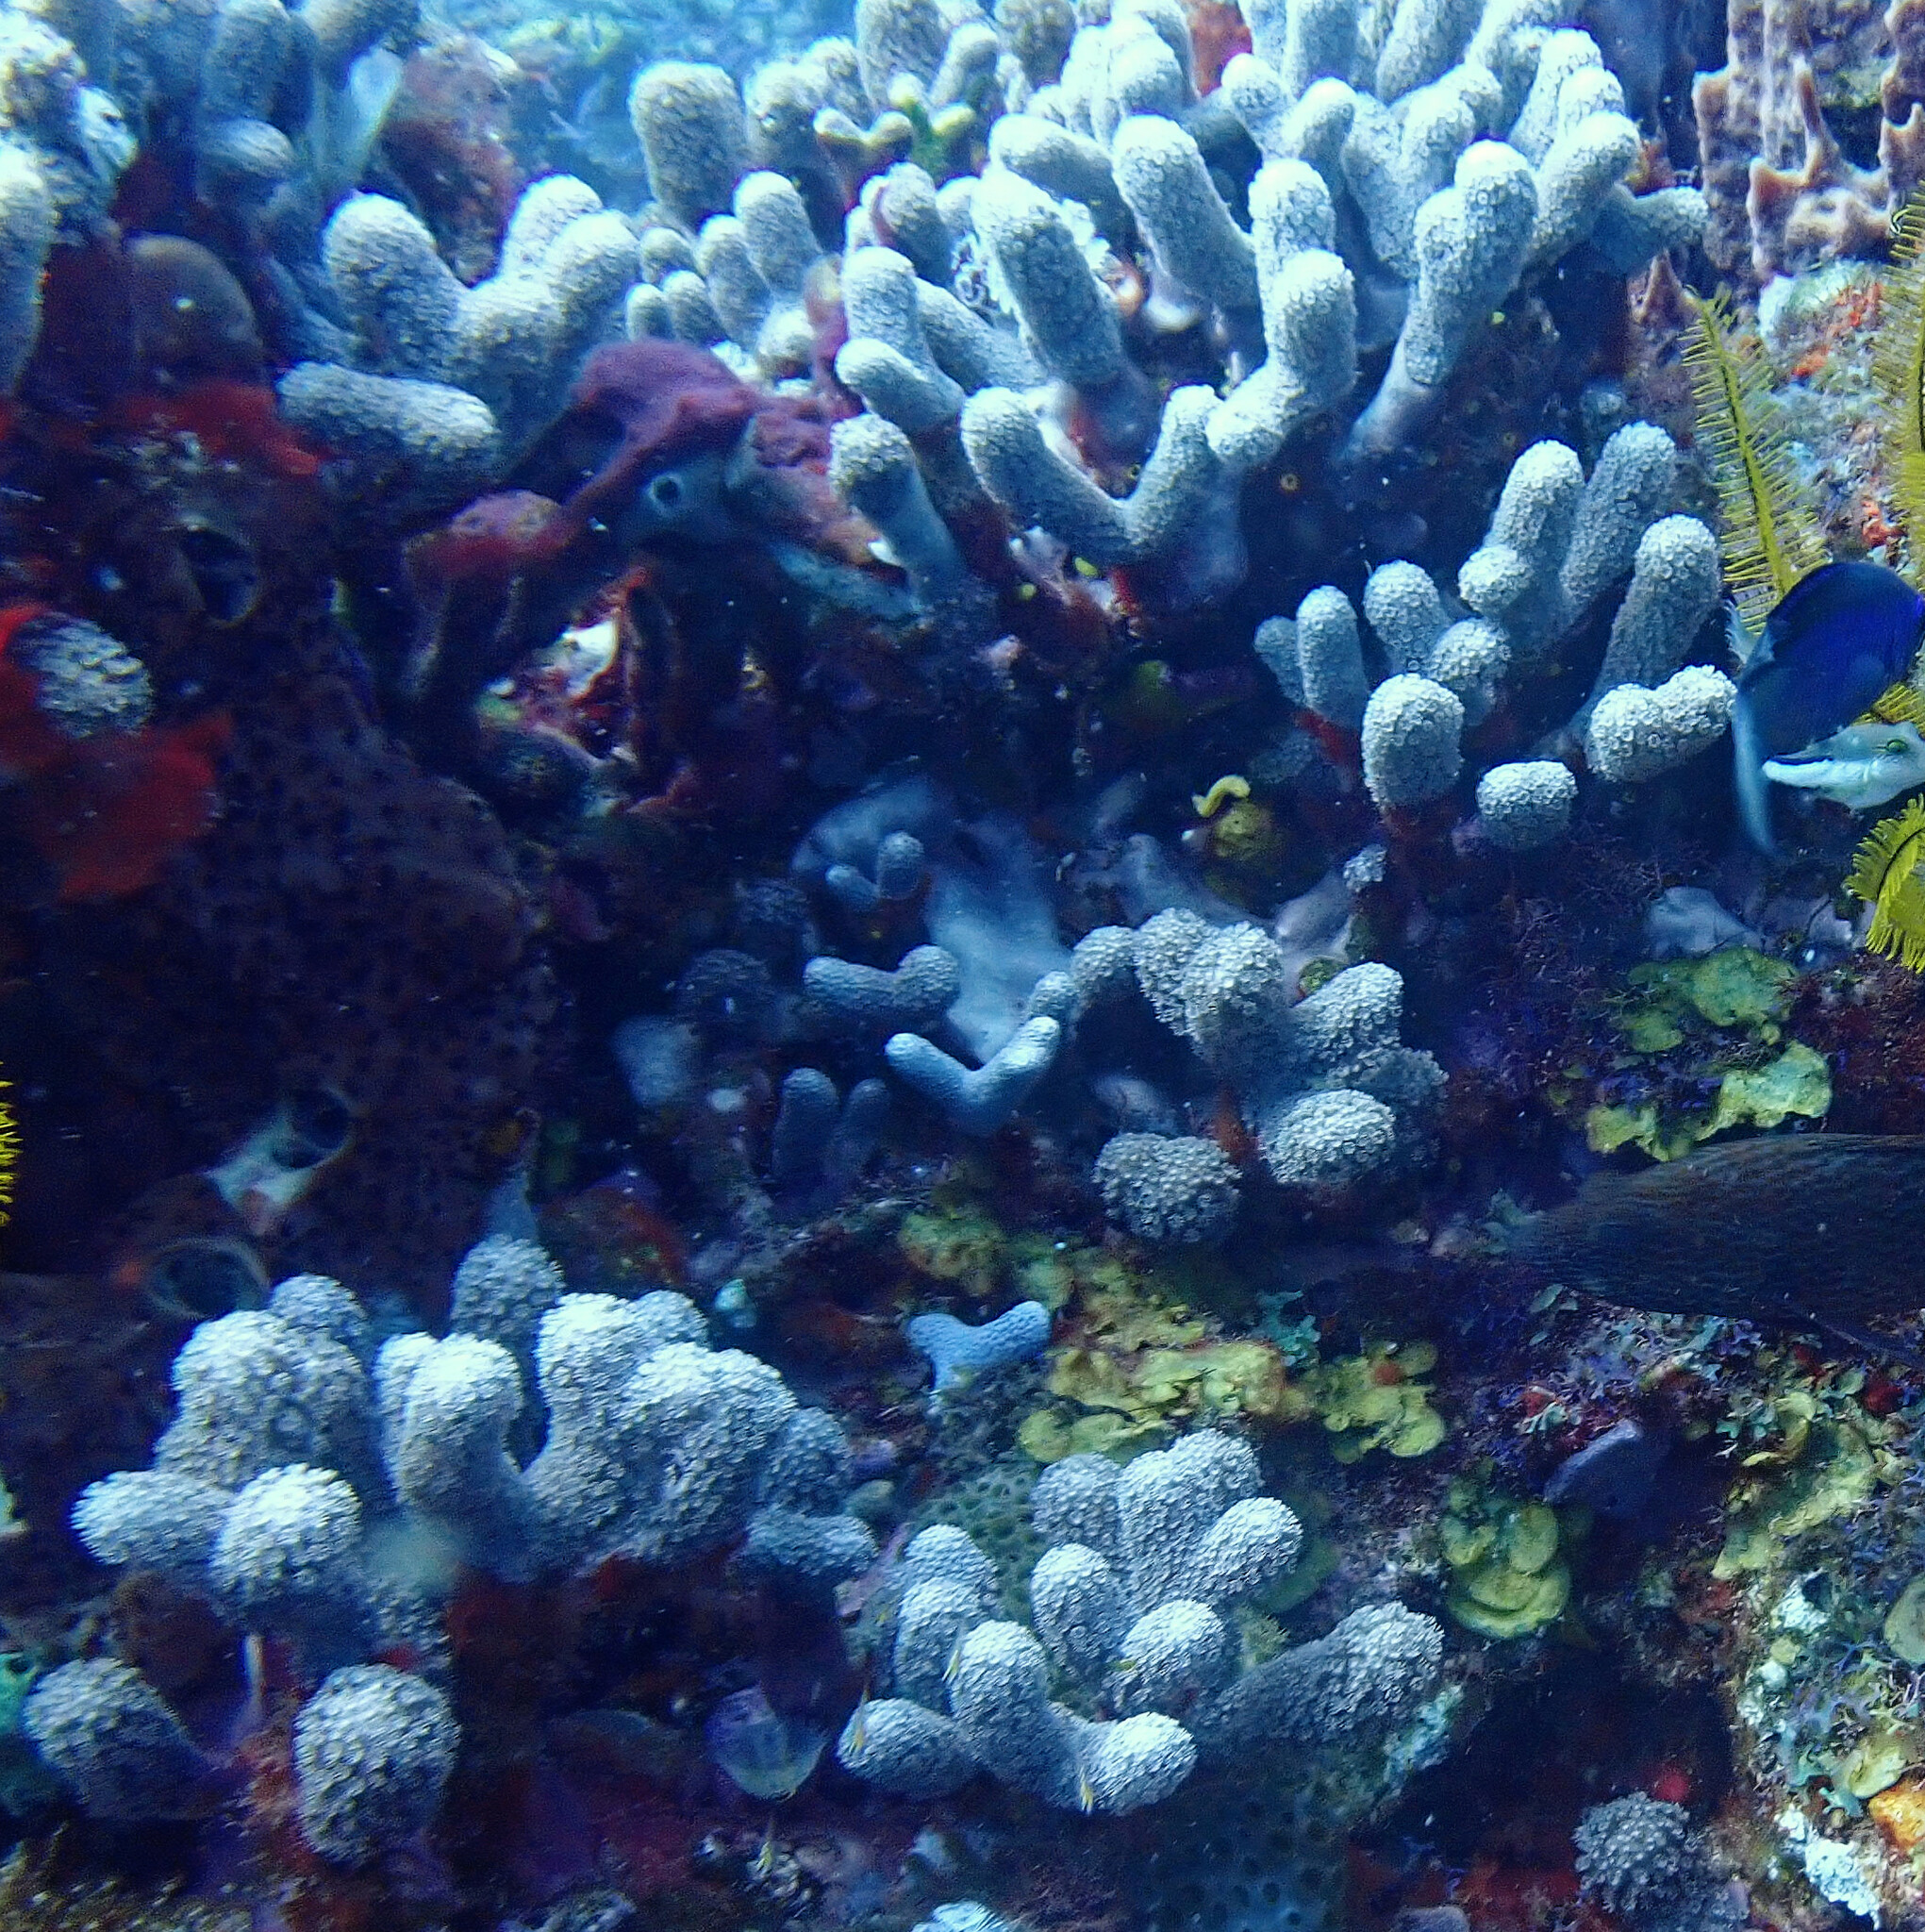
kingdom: Animalia
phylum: Cnidaria
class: Anthozoa
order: Scleractinia
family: Poritidae
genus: Porites
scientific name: Porites porites
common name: Finger coral
